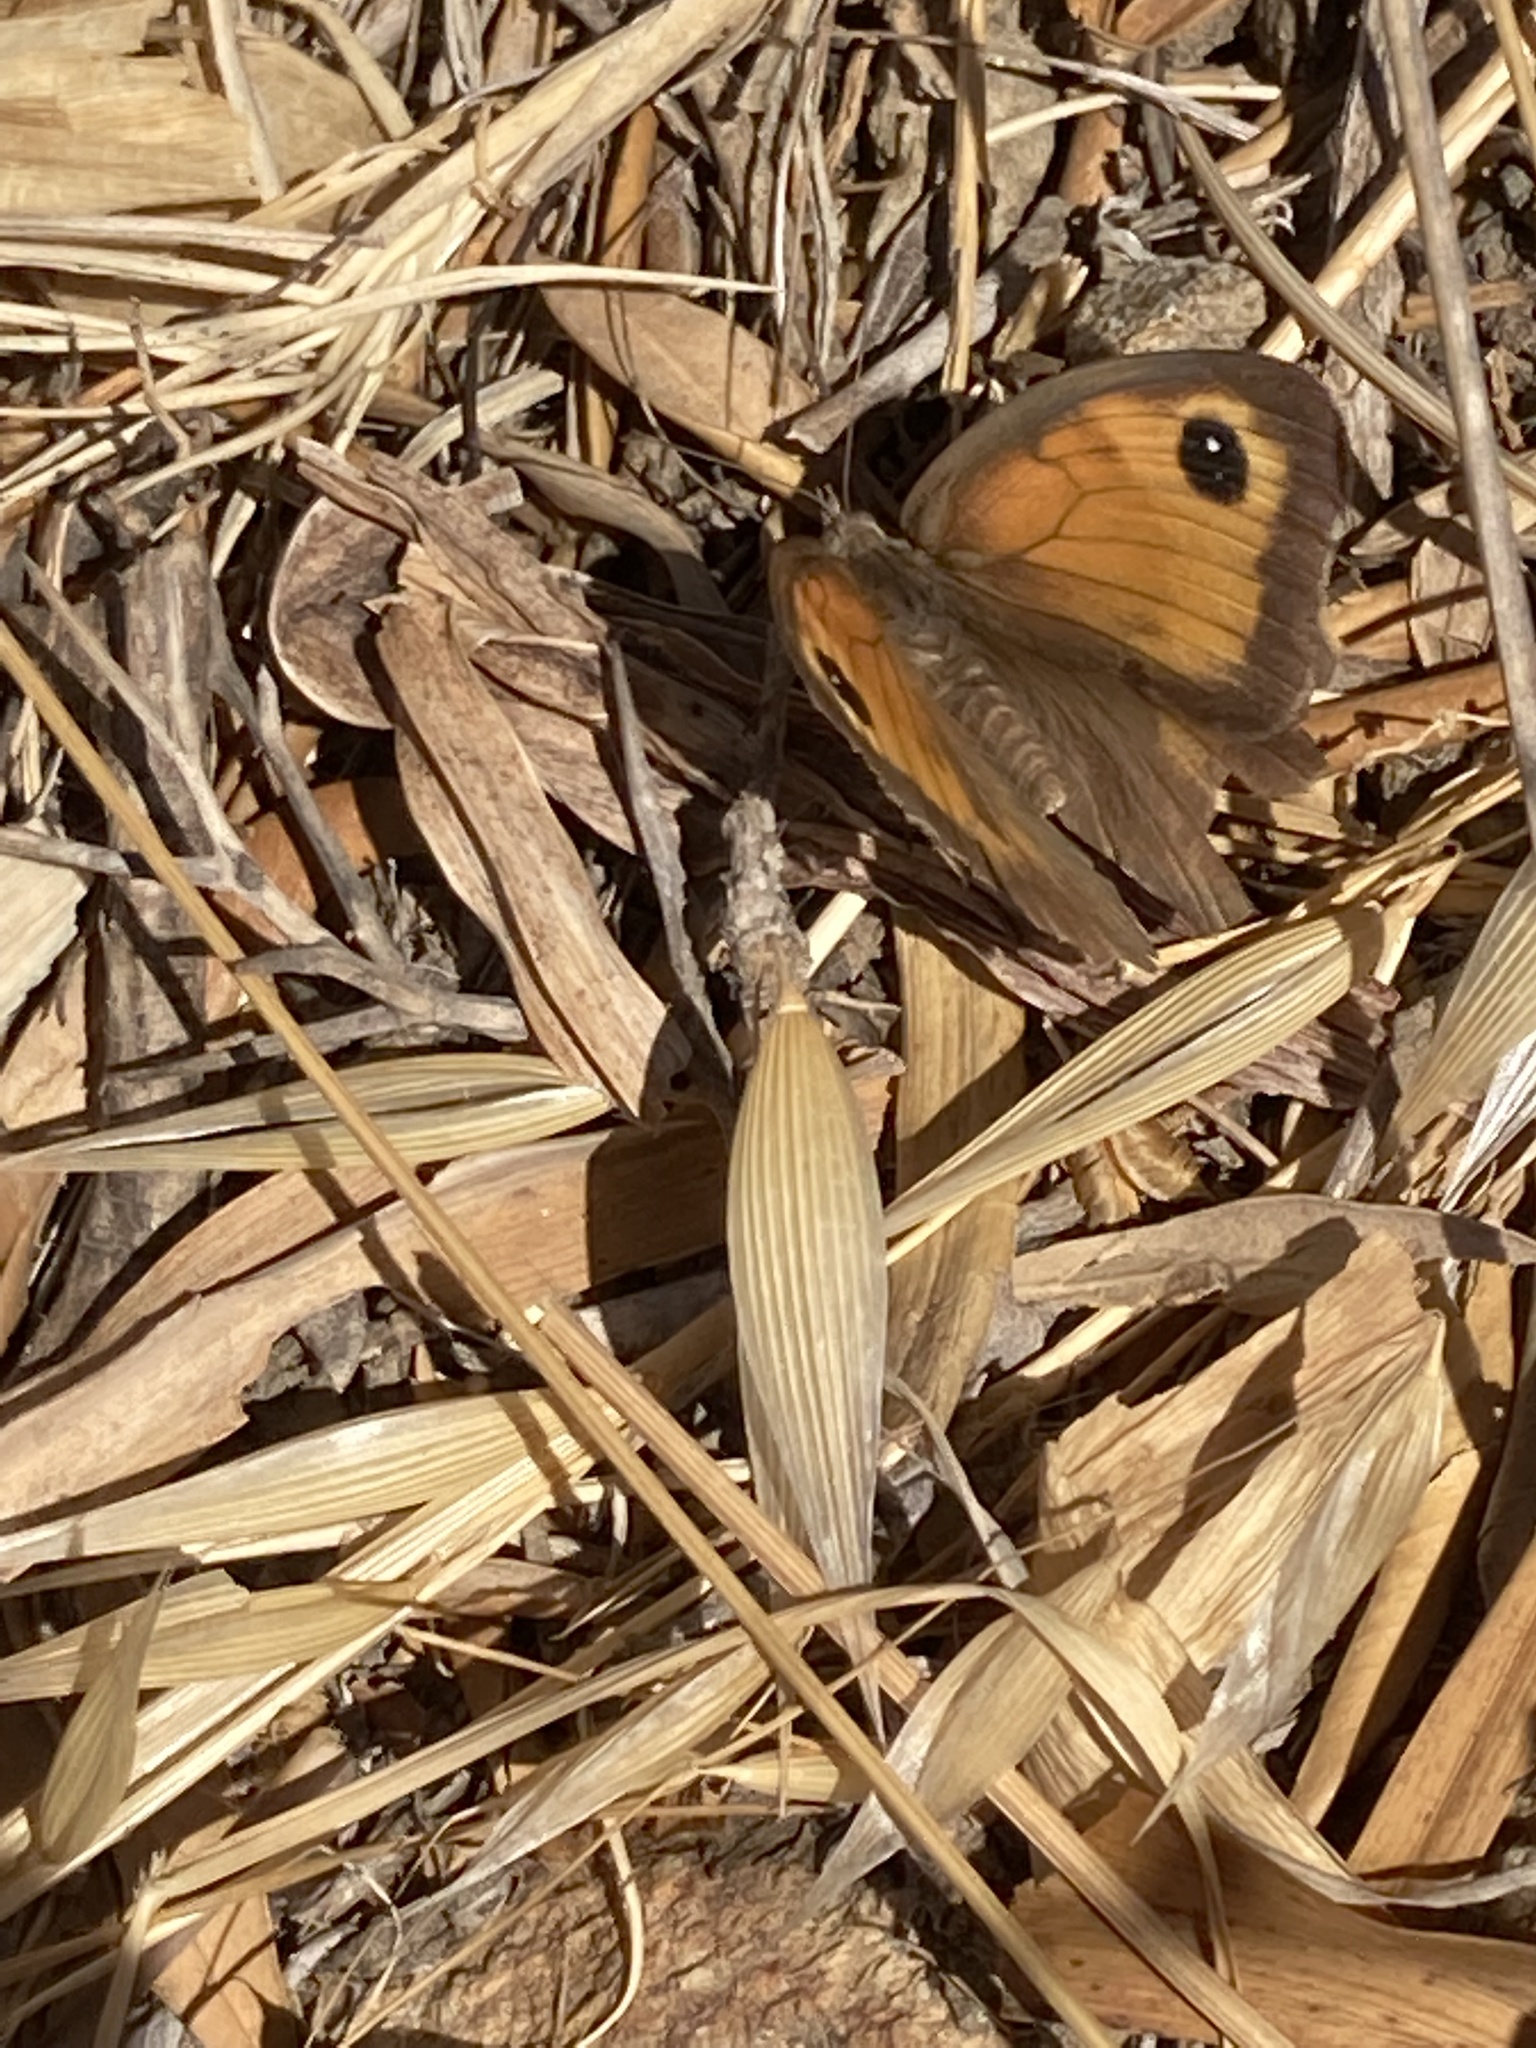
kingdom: Animalia
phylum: Arthropoda
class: Insecta
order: Lepidoptera
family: Nymphalidae
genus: Maniola
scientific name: Maniola jurtina
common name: Meadow brown
